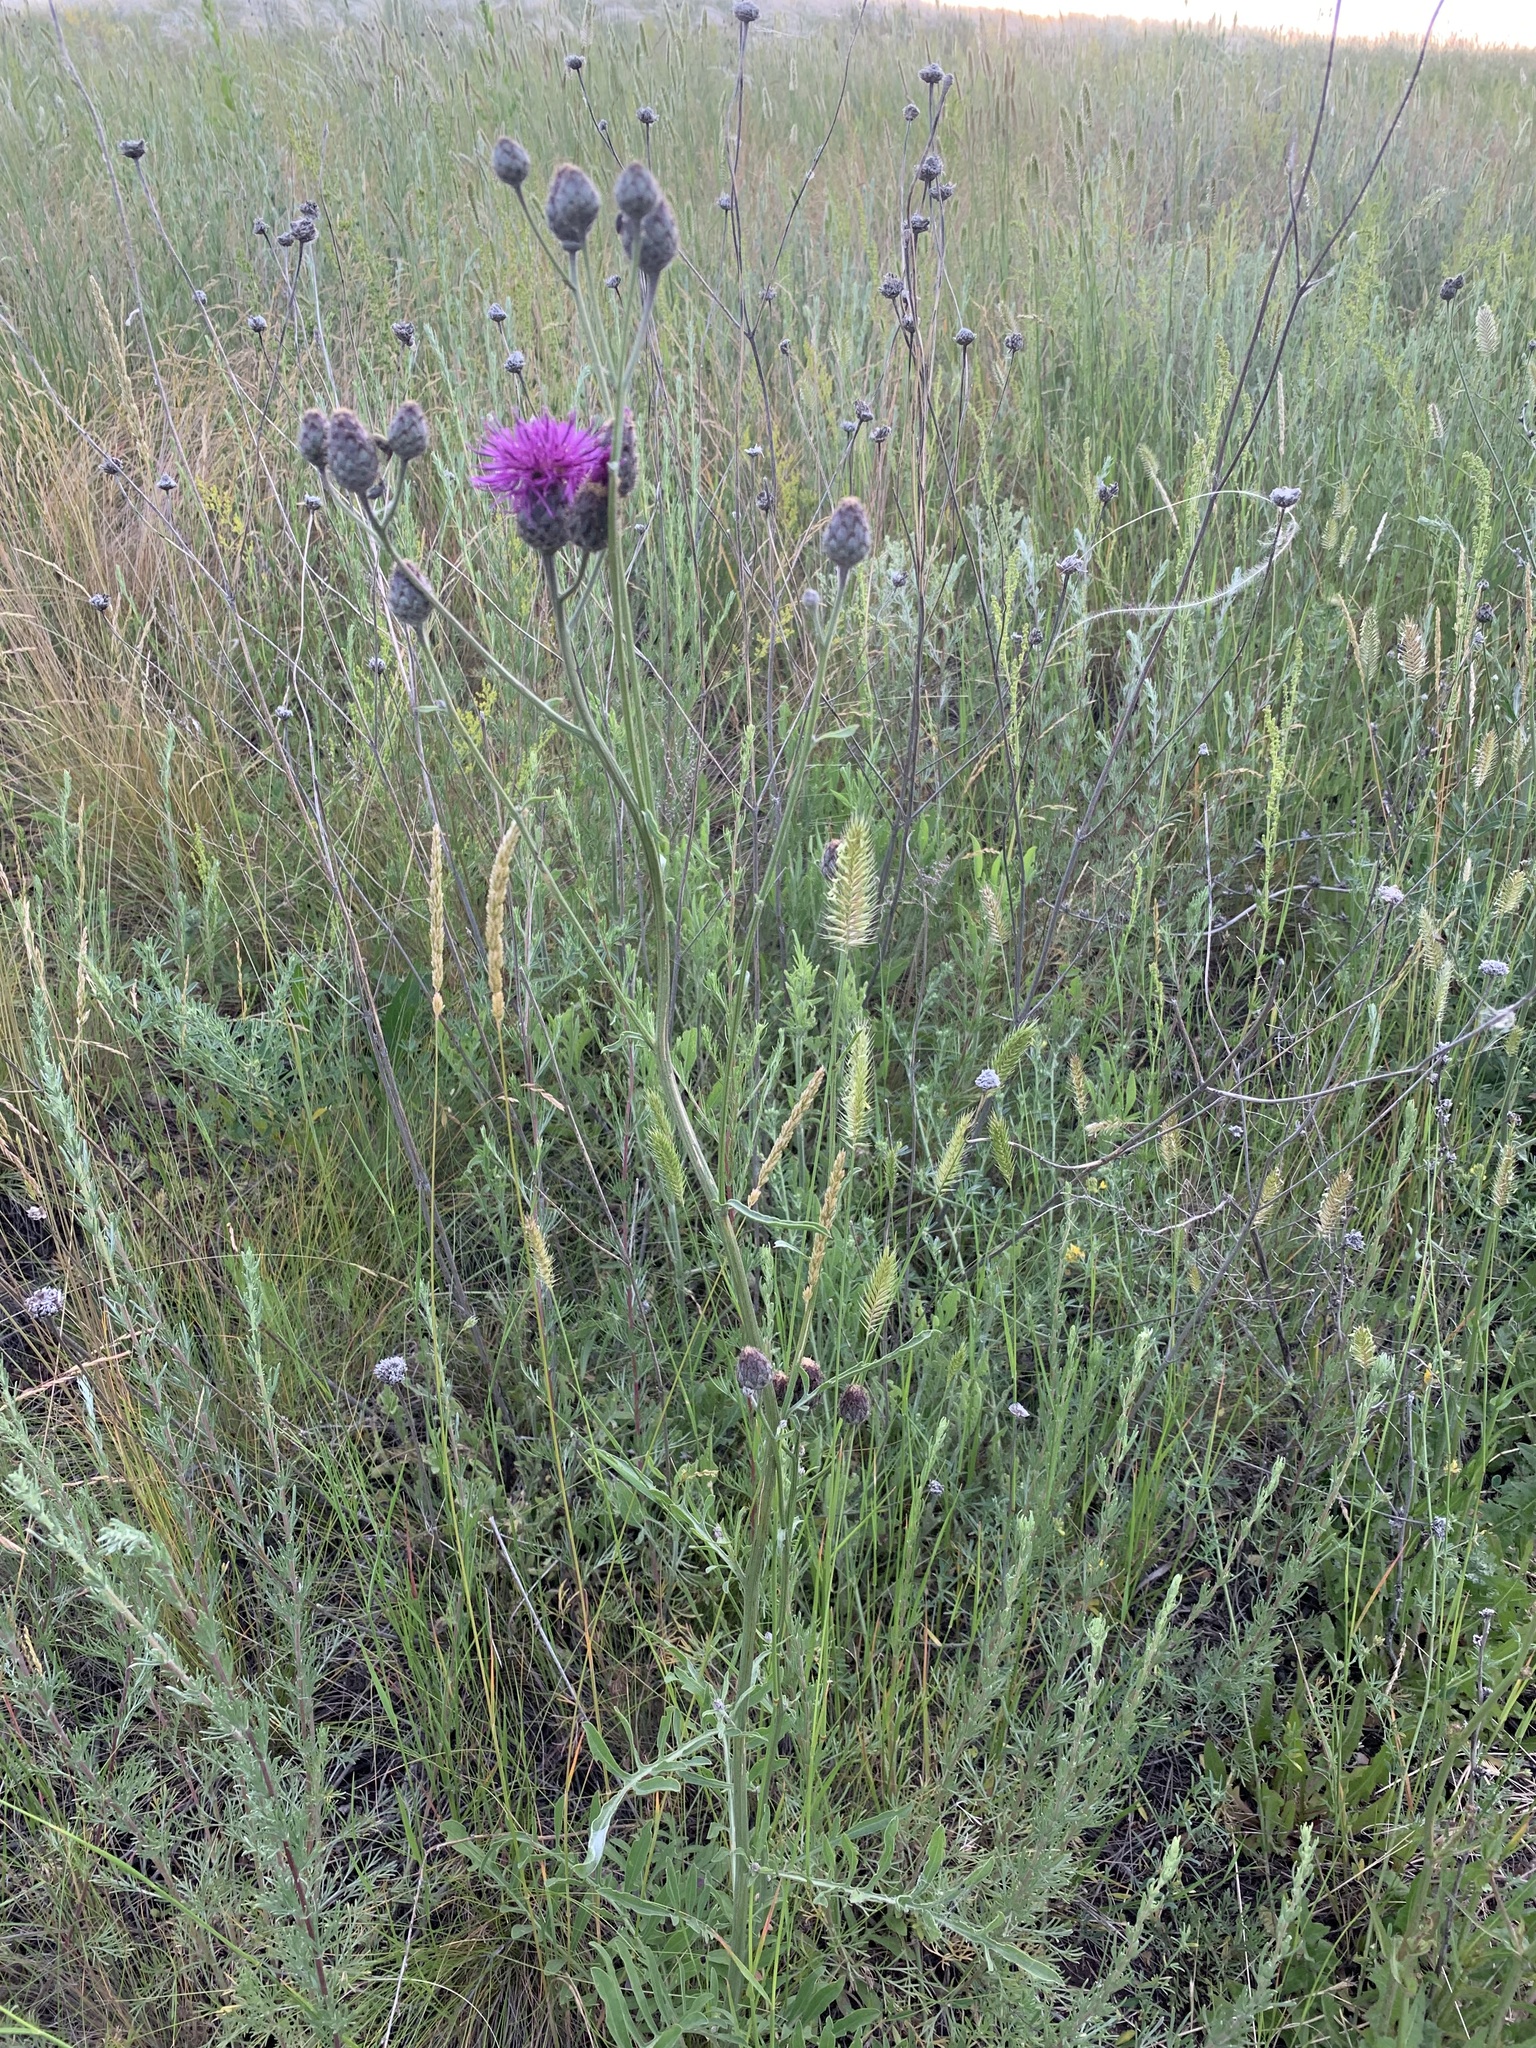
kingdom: Plantae
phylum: Tracheophyta
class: Magnoliopsida
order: Asterales
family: Asteraceae
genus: Centaurea
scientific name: Centaurea scabiosa
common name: Greater knapweed
